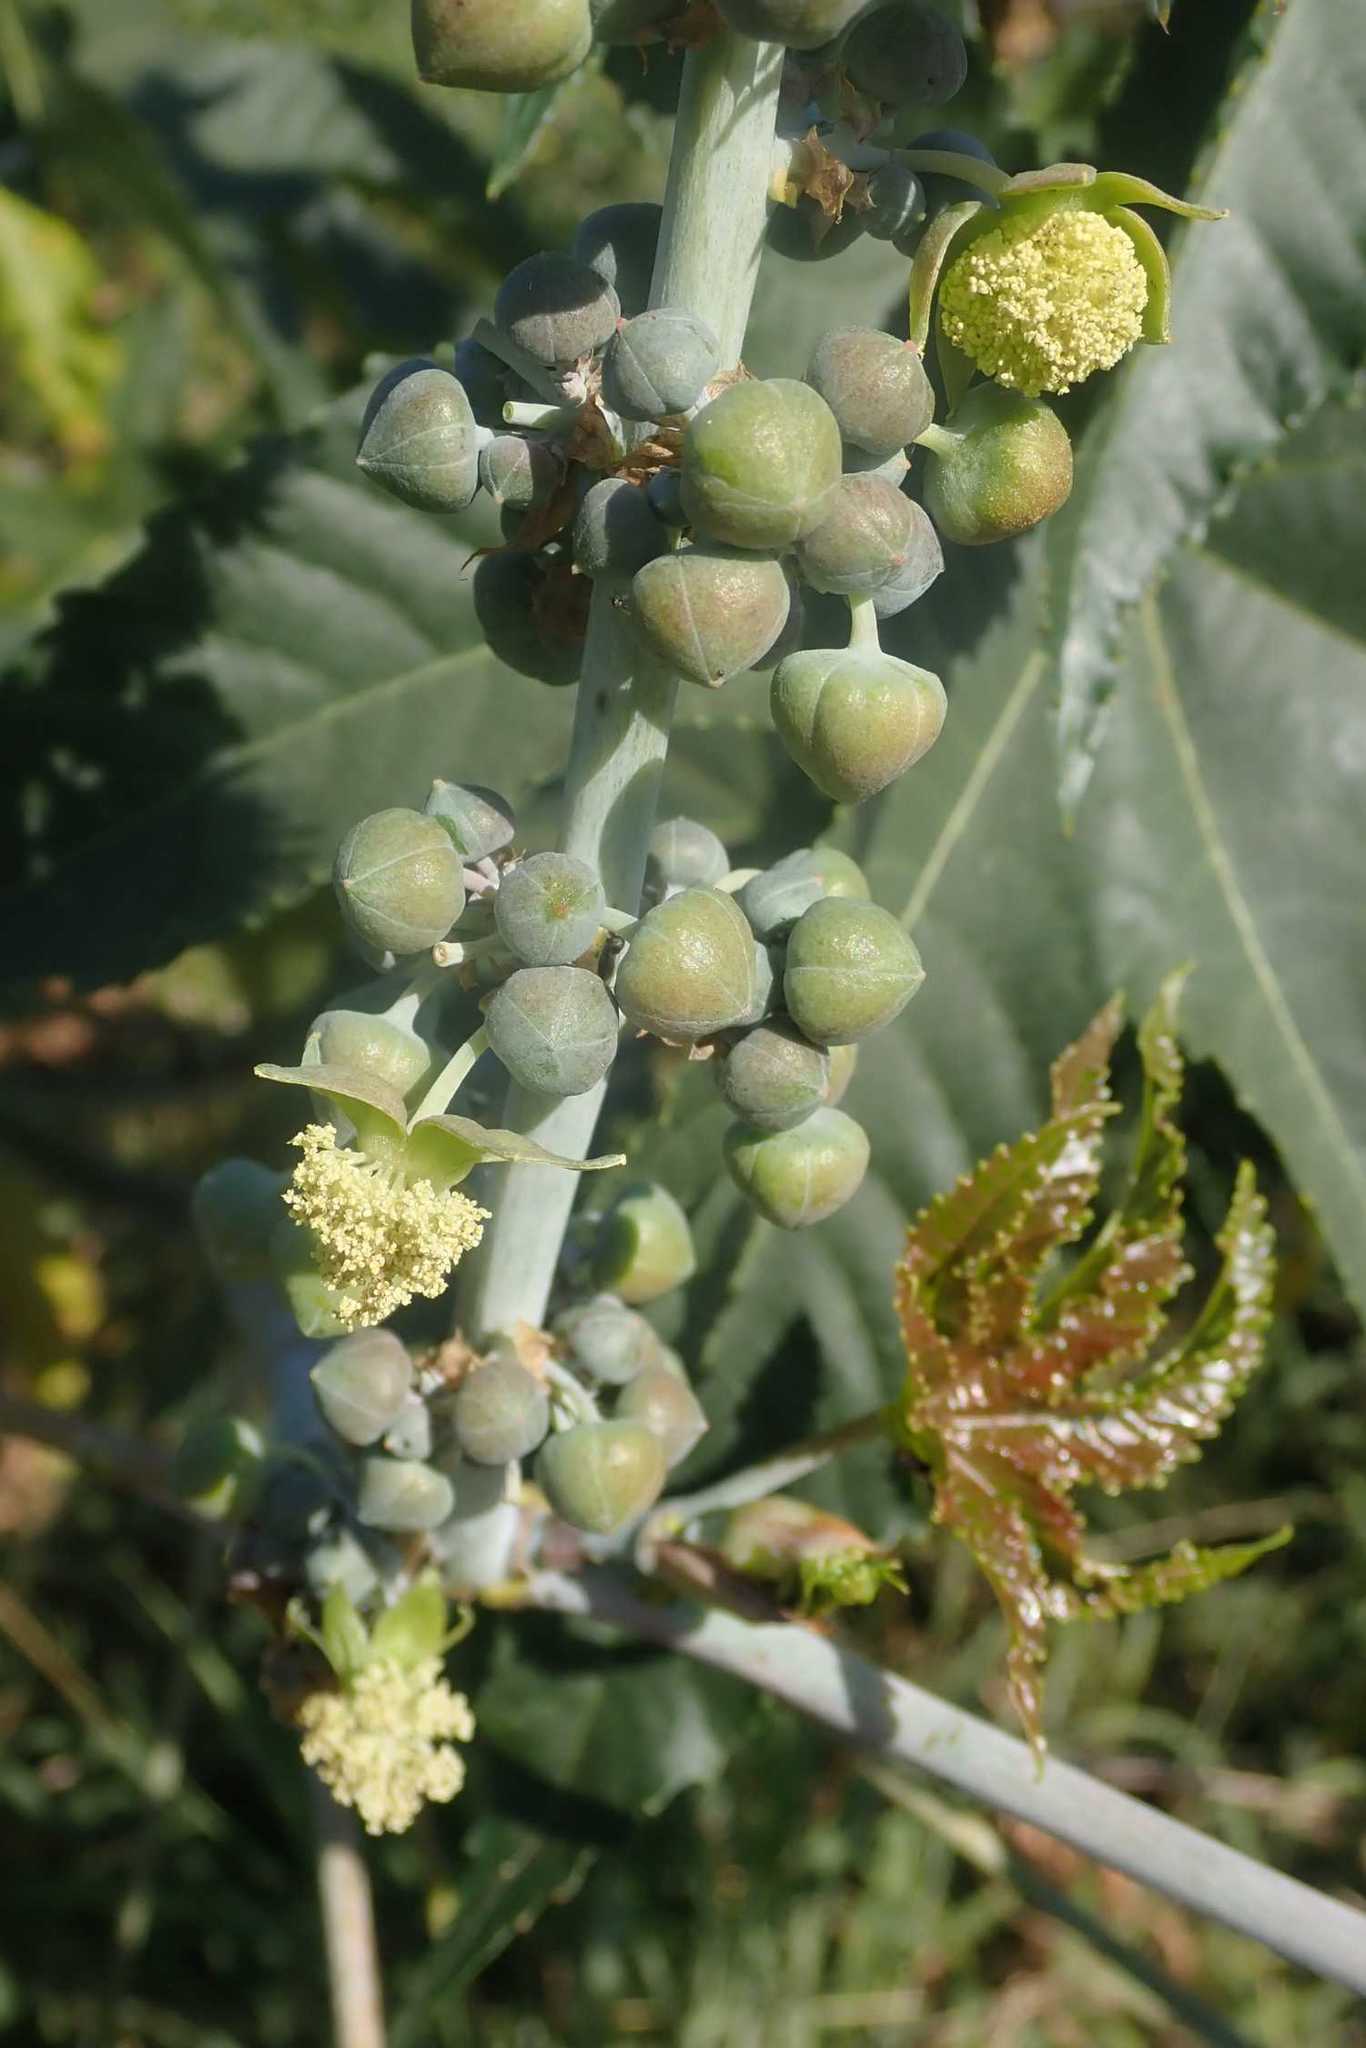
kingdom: Plantae
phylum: Tracheophyta
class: Magnoliopsida
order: Malpighiales
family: Euphorbiaceae
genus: Ricinus
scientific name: Ricinus communis
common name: Castor-oil-plant
